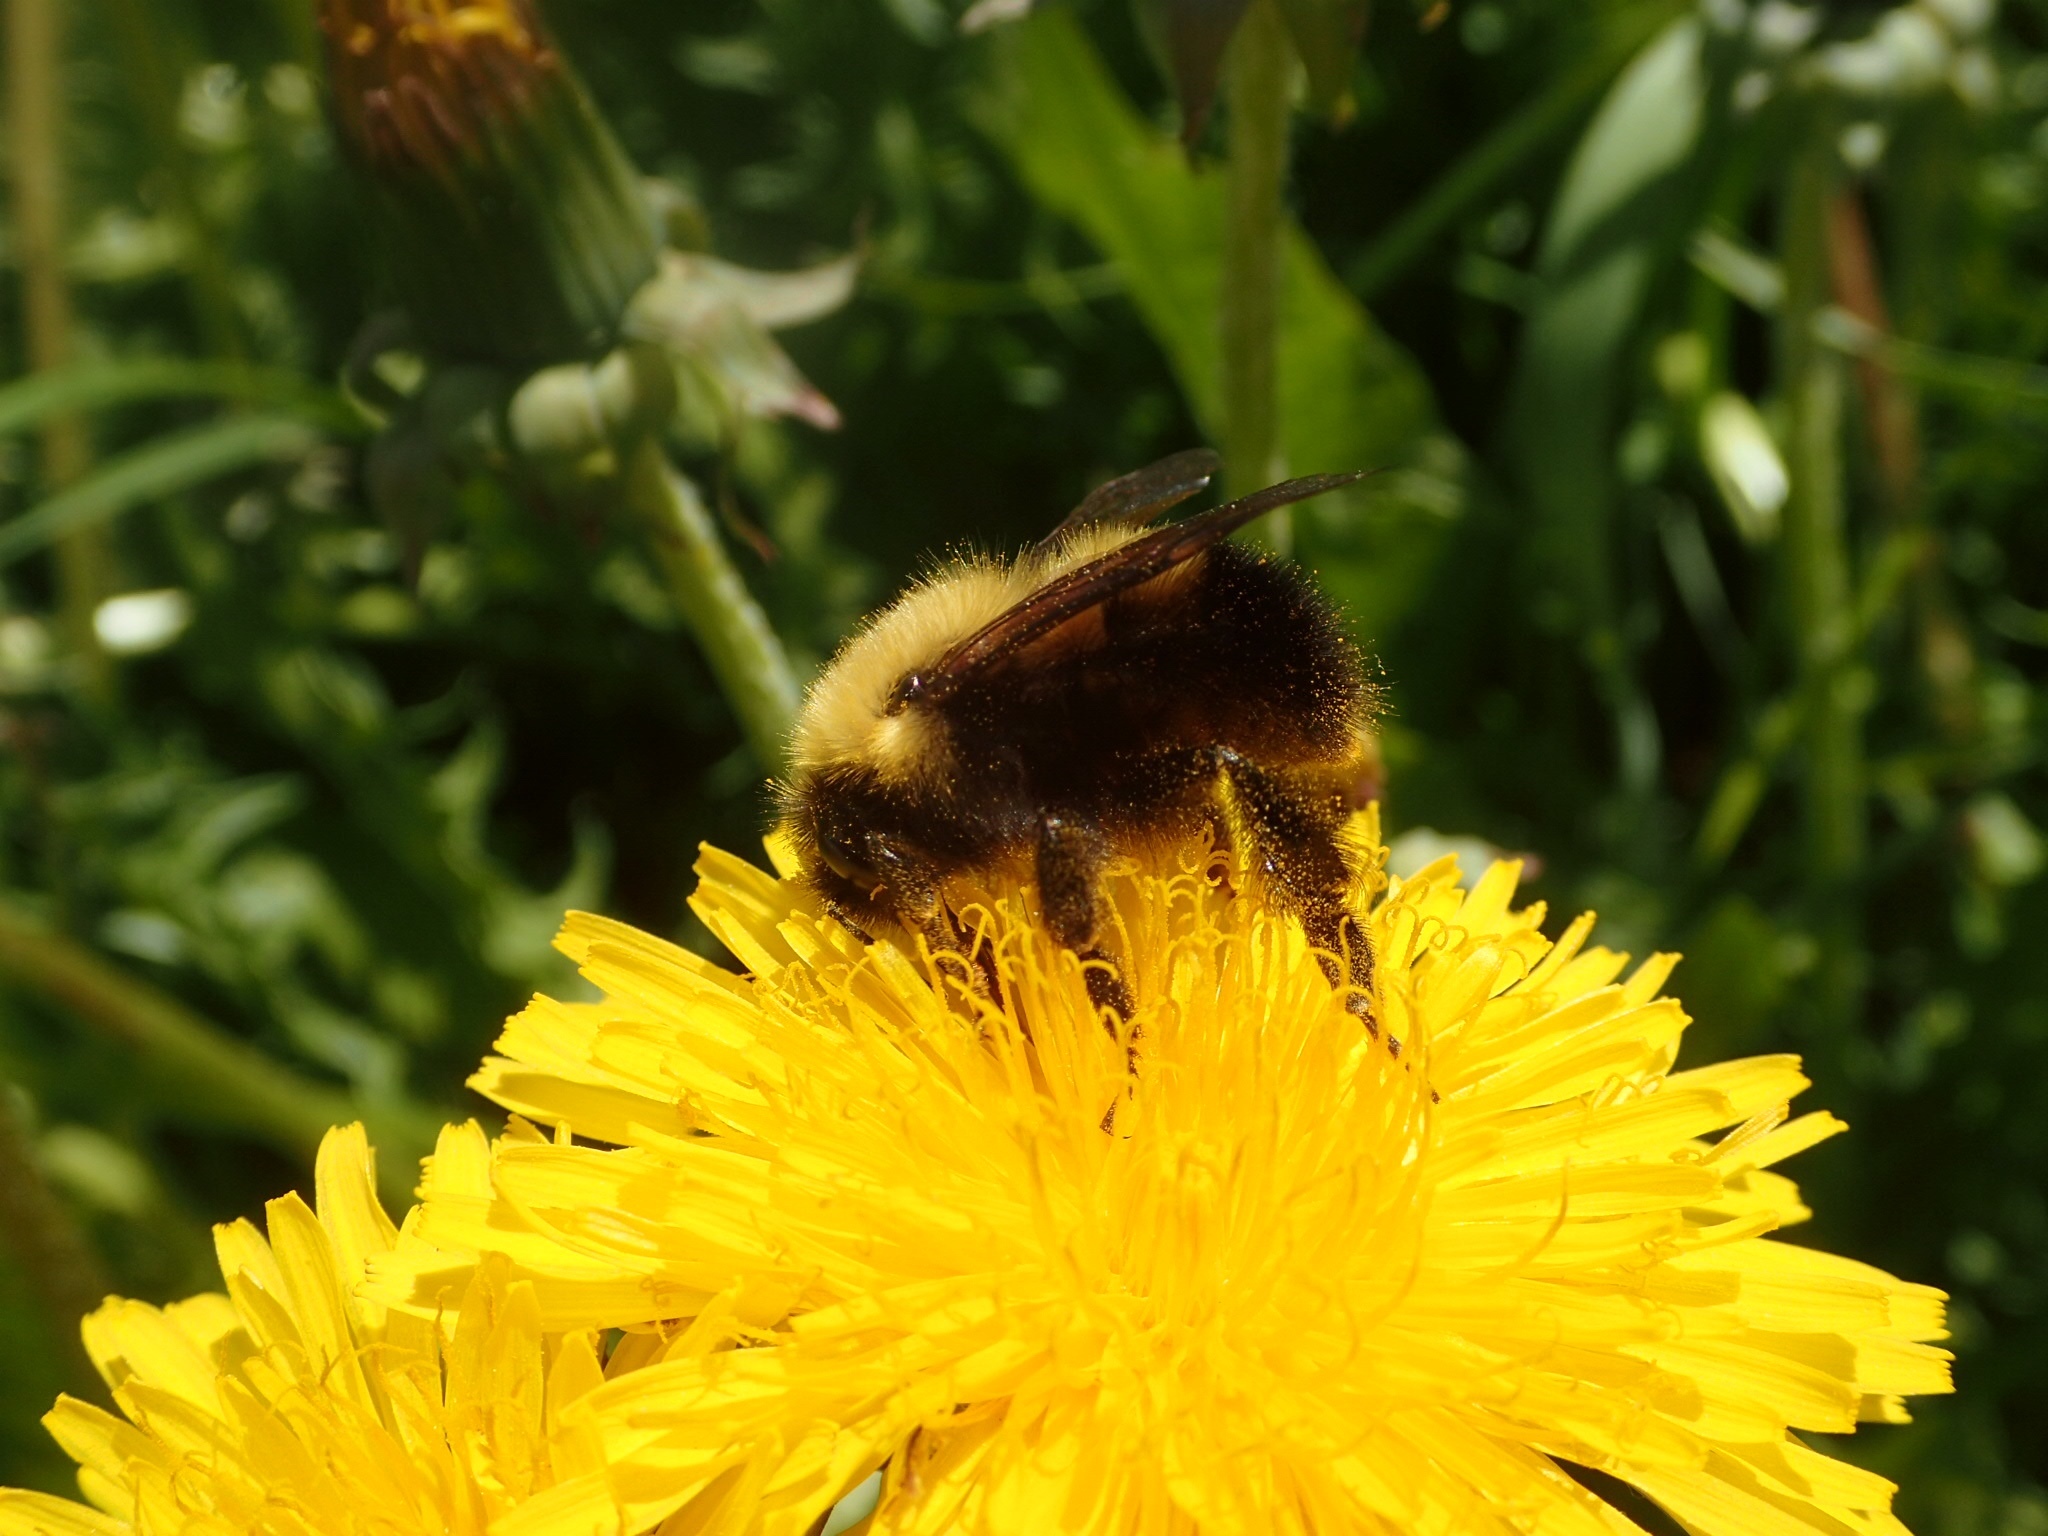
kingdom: Animalia
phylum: Arthropoda
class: Insecta
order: Hymenoptera
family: Apidae
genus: Bombus
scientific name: Bombus perplexus
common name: Confusing bumble bee
